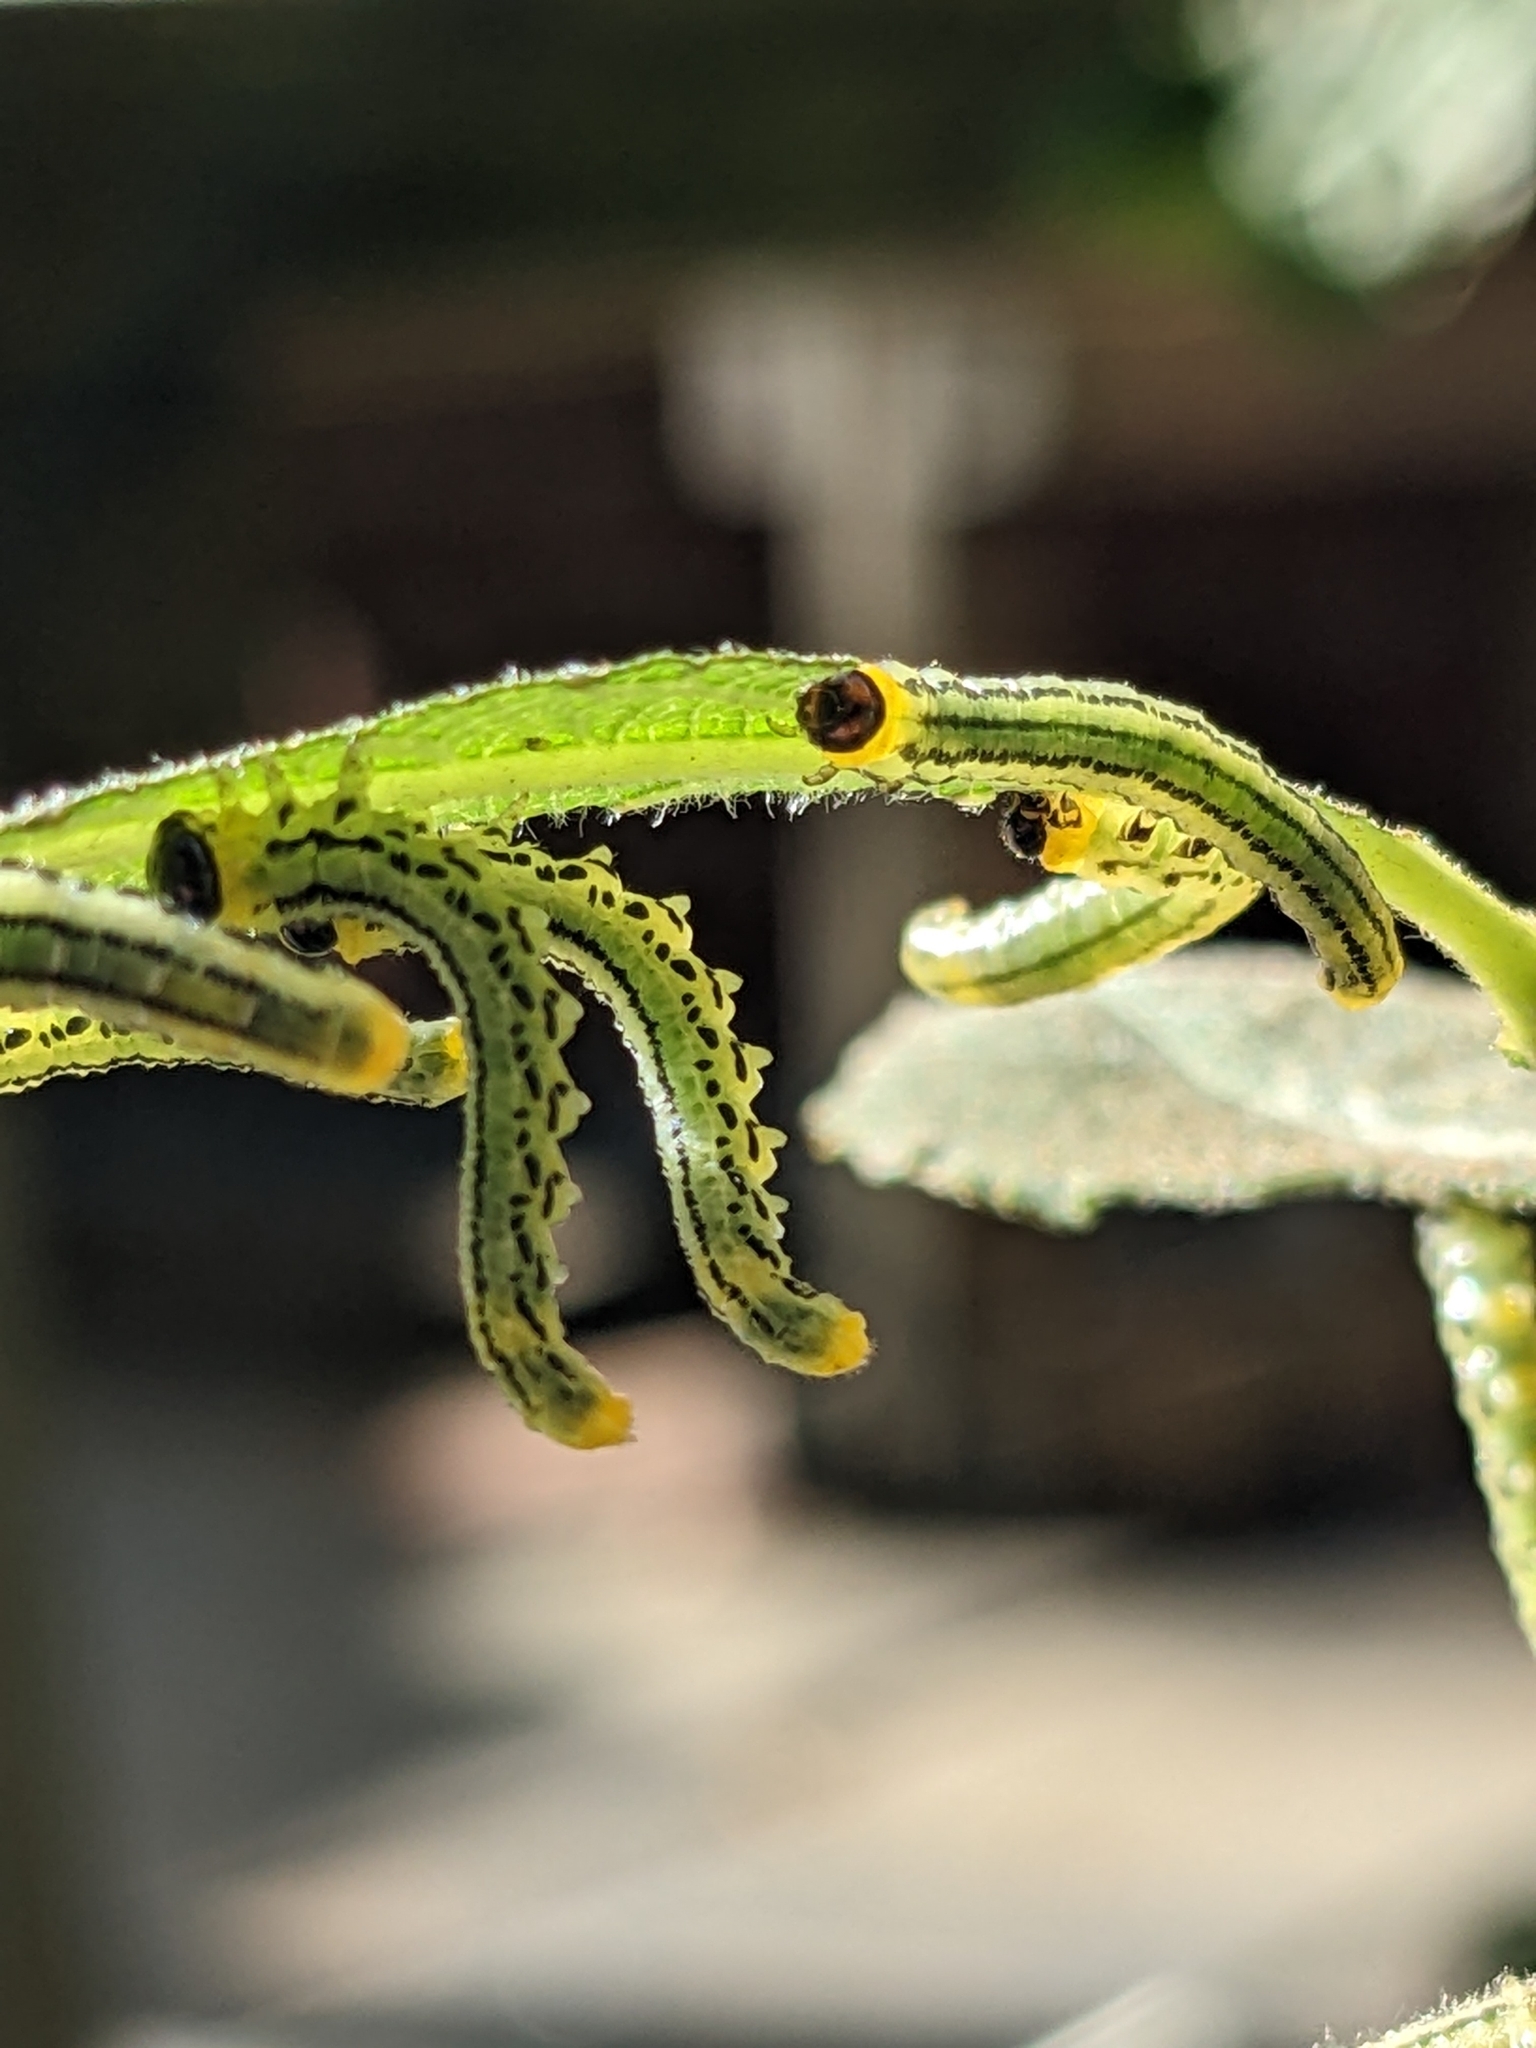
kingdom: Animalia
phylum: Arthropoda
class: Insecta
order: Hymenoptera
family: Tenthredinidae
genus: Nematus
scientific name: Nematus pavidus
